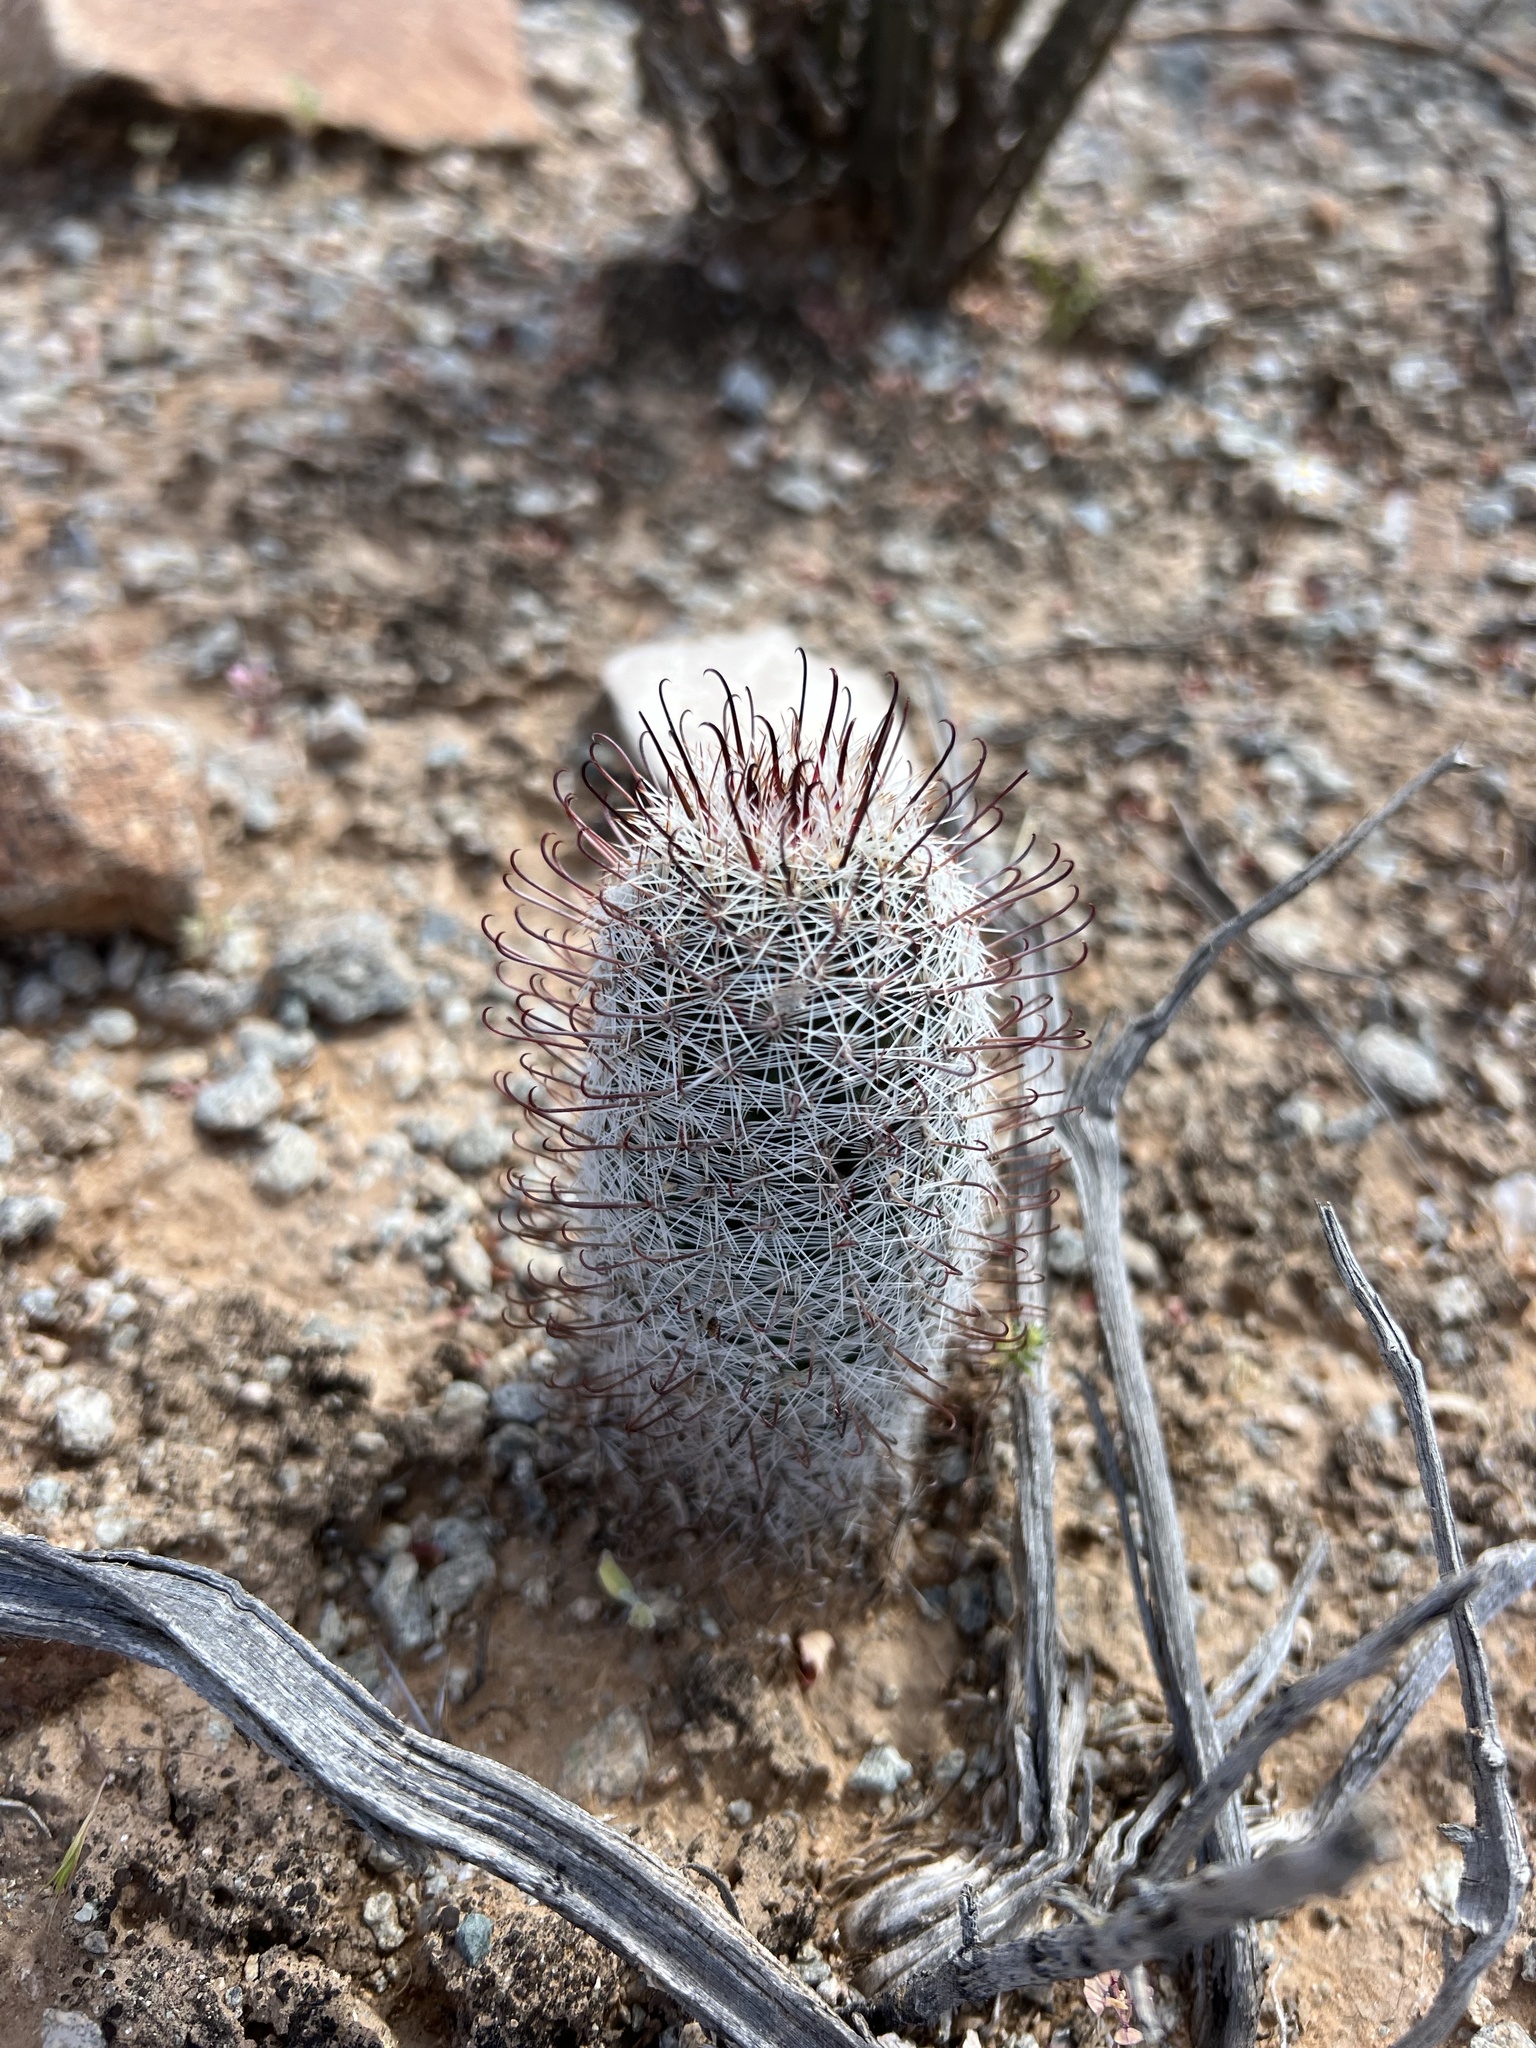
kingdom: Plantae
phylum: Tracheophyta
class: Magnoliopsida
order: Caryophyllales
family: Cactaceae
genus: Cochemiea
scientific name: Cochemiea grahamii
